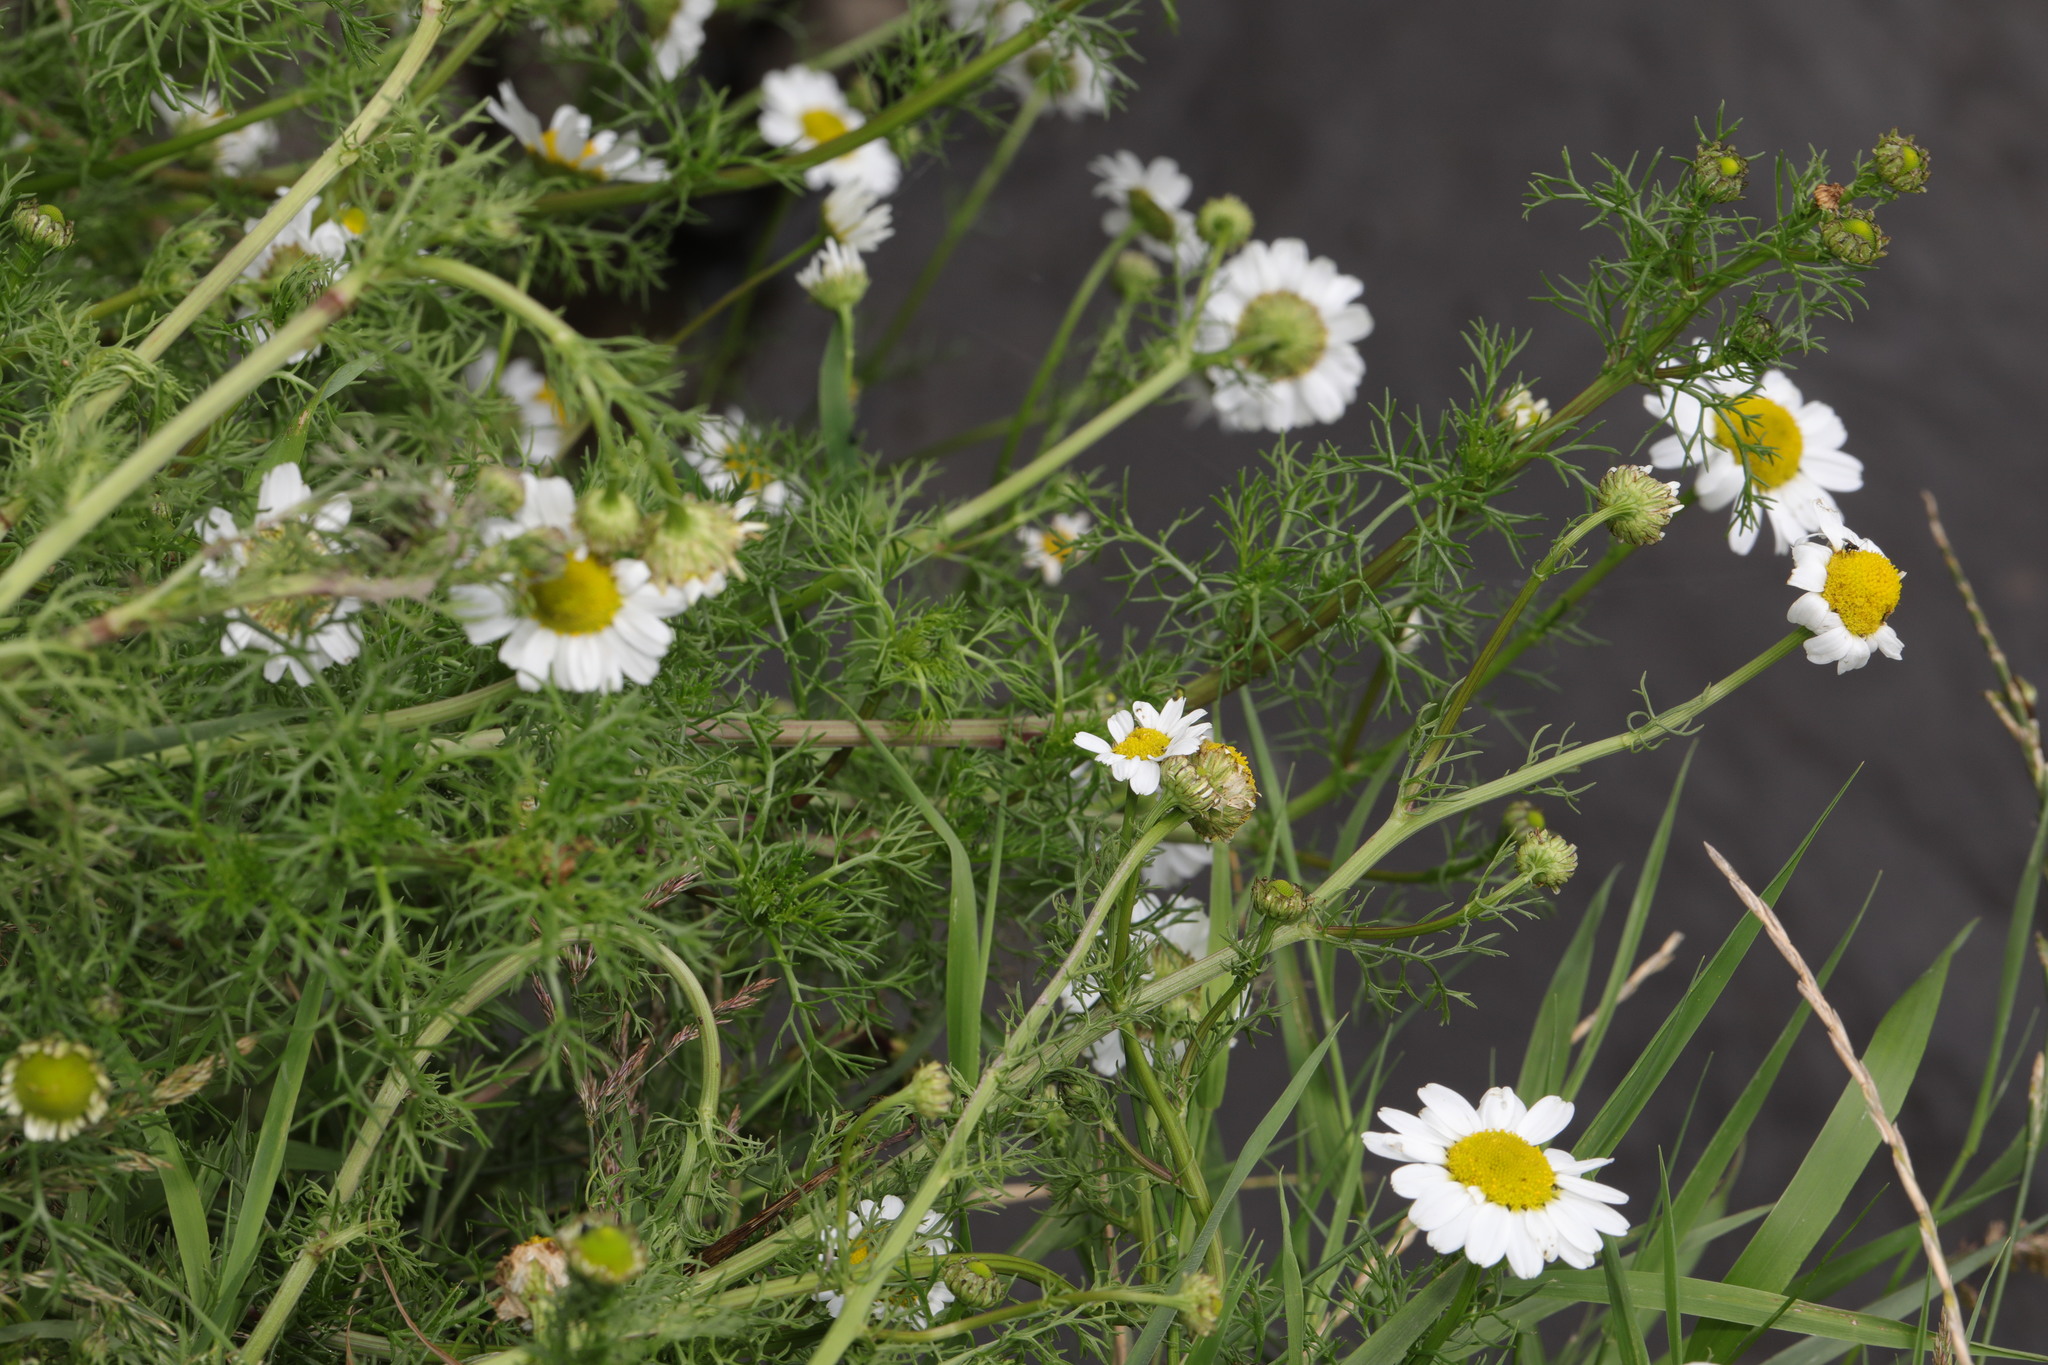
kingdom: Plantae
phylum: Tracheophyta
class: Magnoliopsida
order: Asterales
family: Asteraceae
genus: Matricaria
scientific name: Matricaria chamomilla
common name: Scented mayweed
